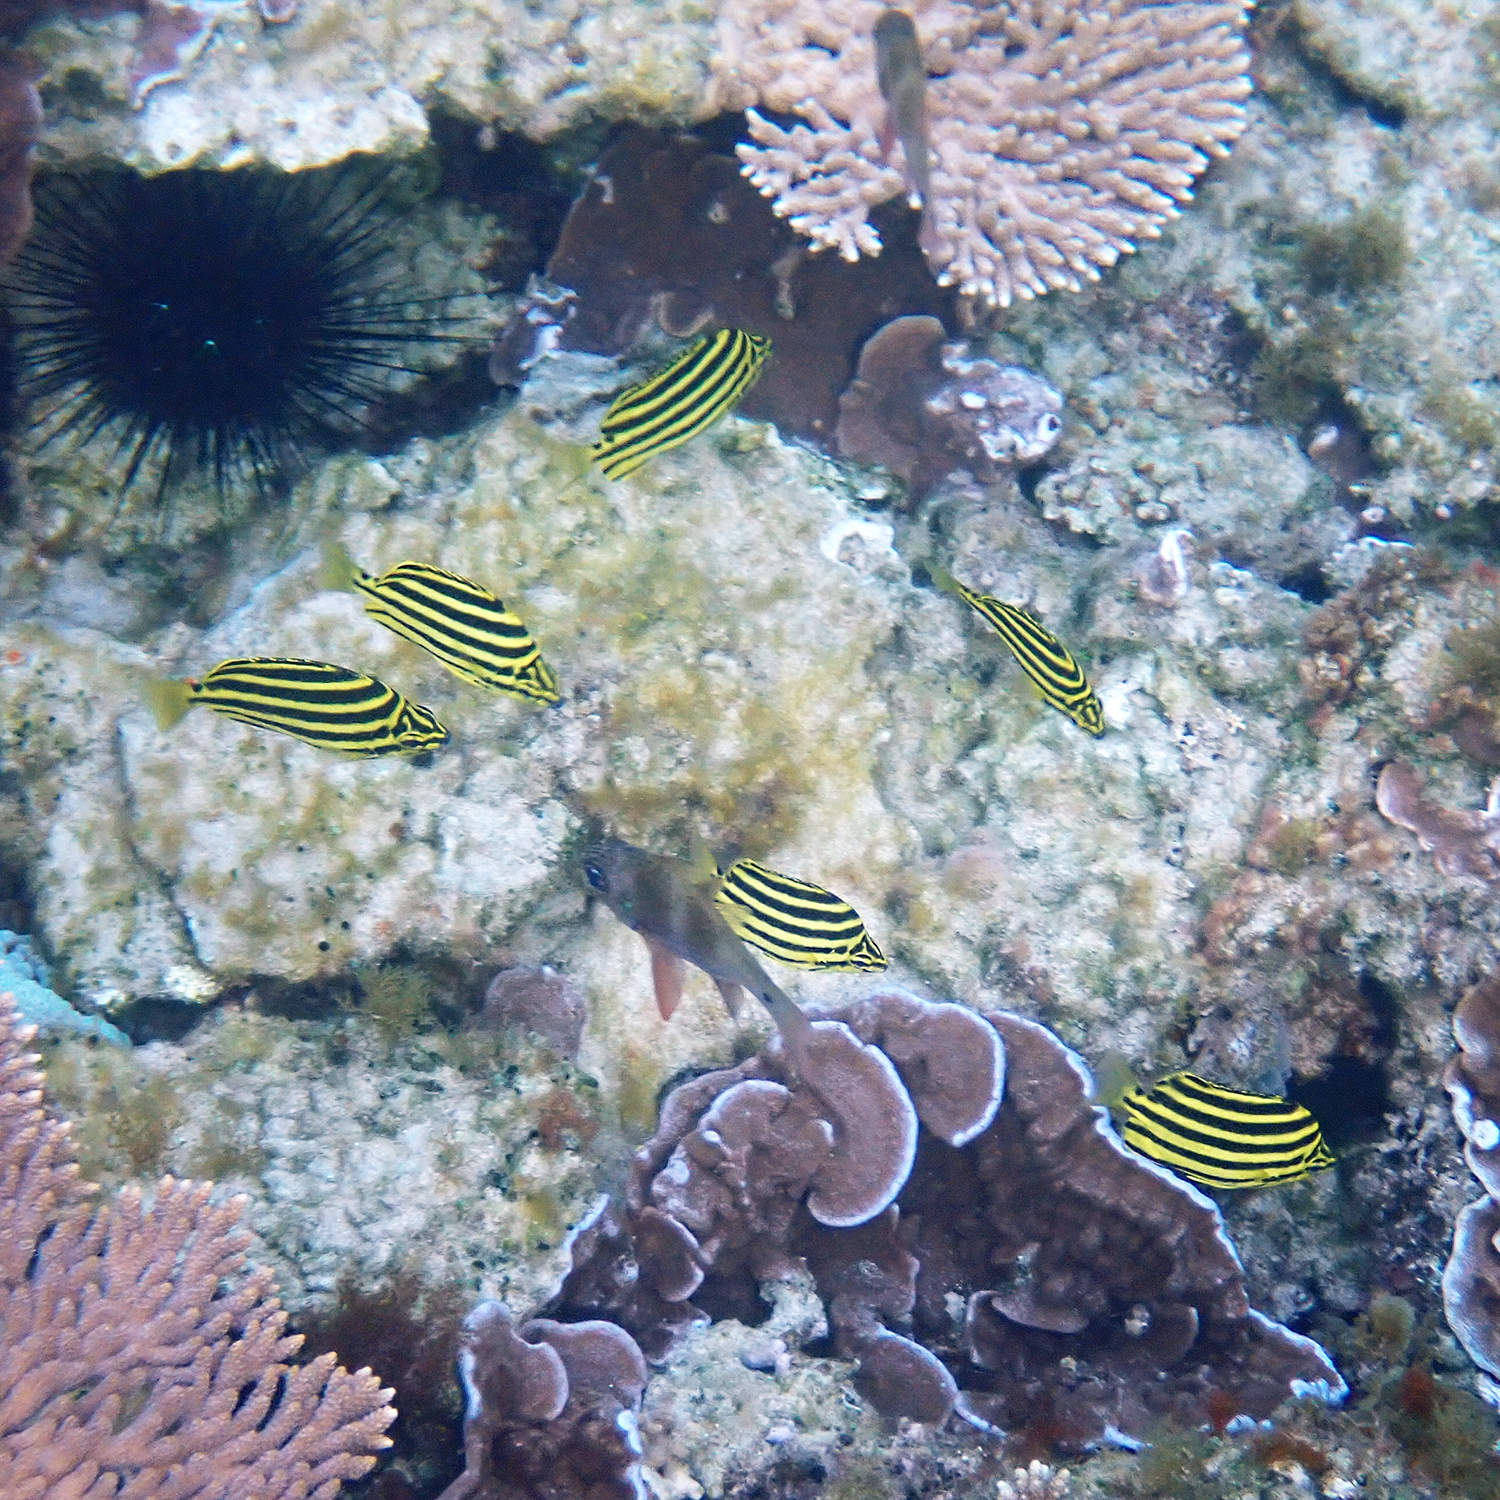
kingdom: Animalia
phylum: Chordata
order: Perciformes
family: Kyphosidae
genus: Microcanthus
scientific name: Microcanthus joyceae
